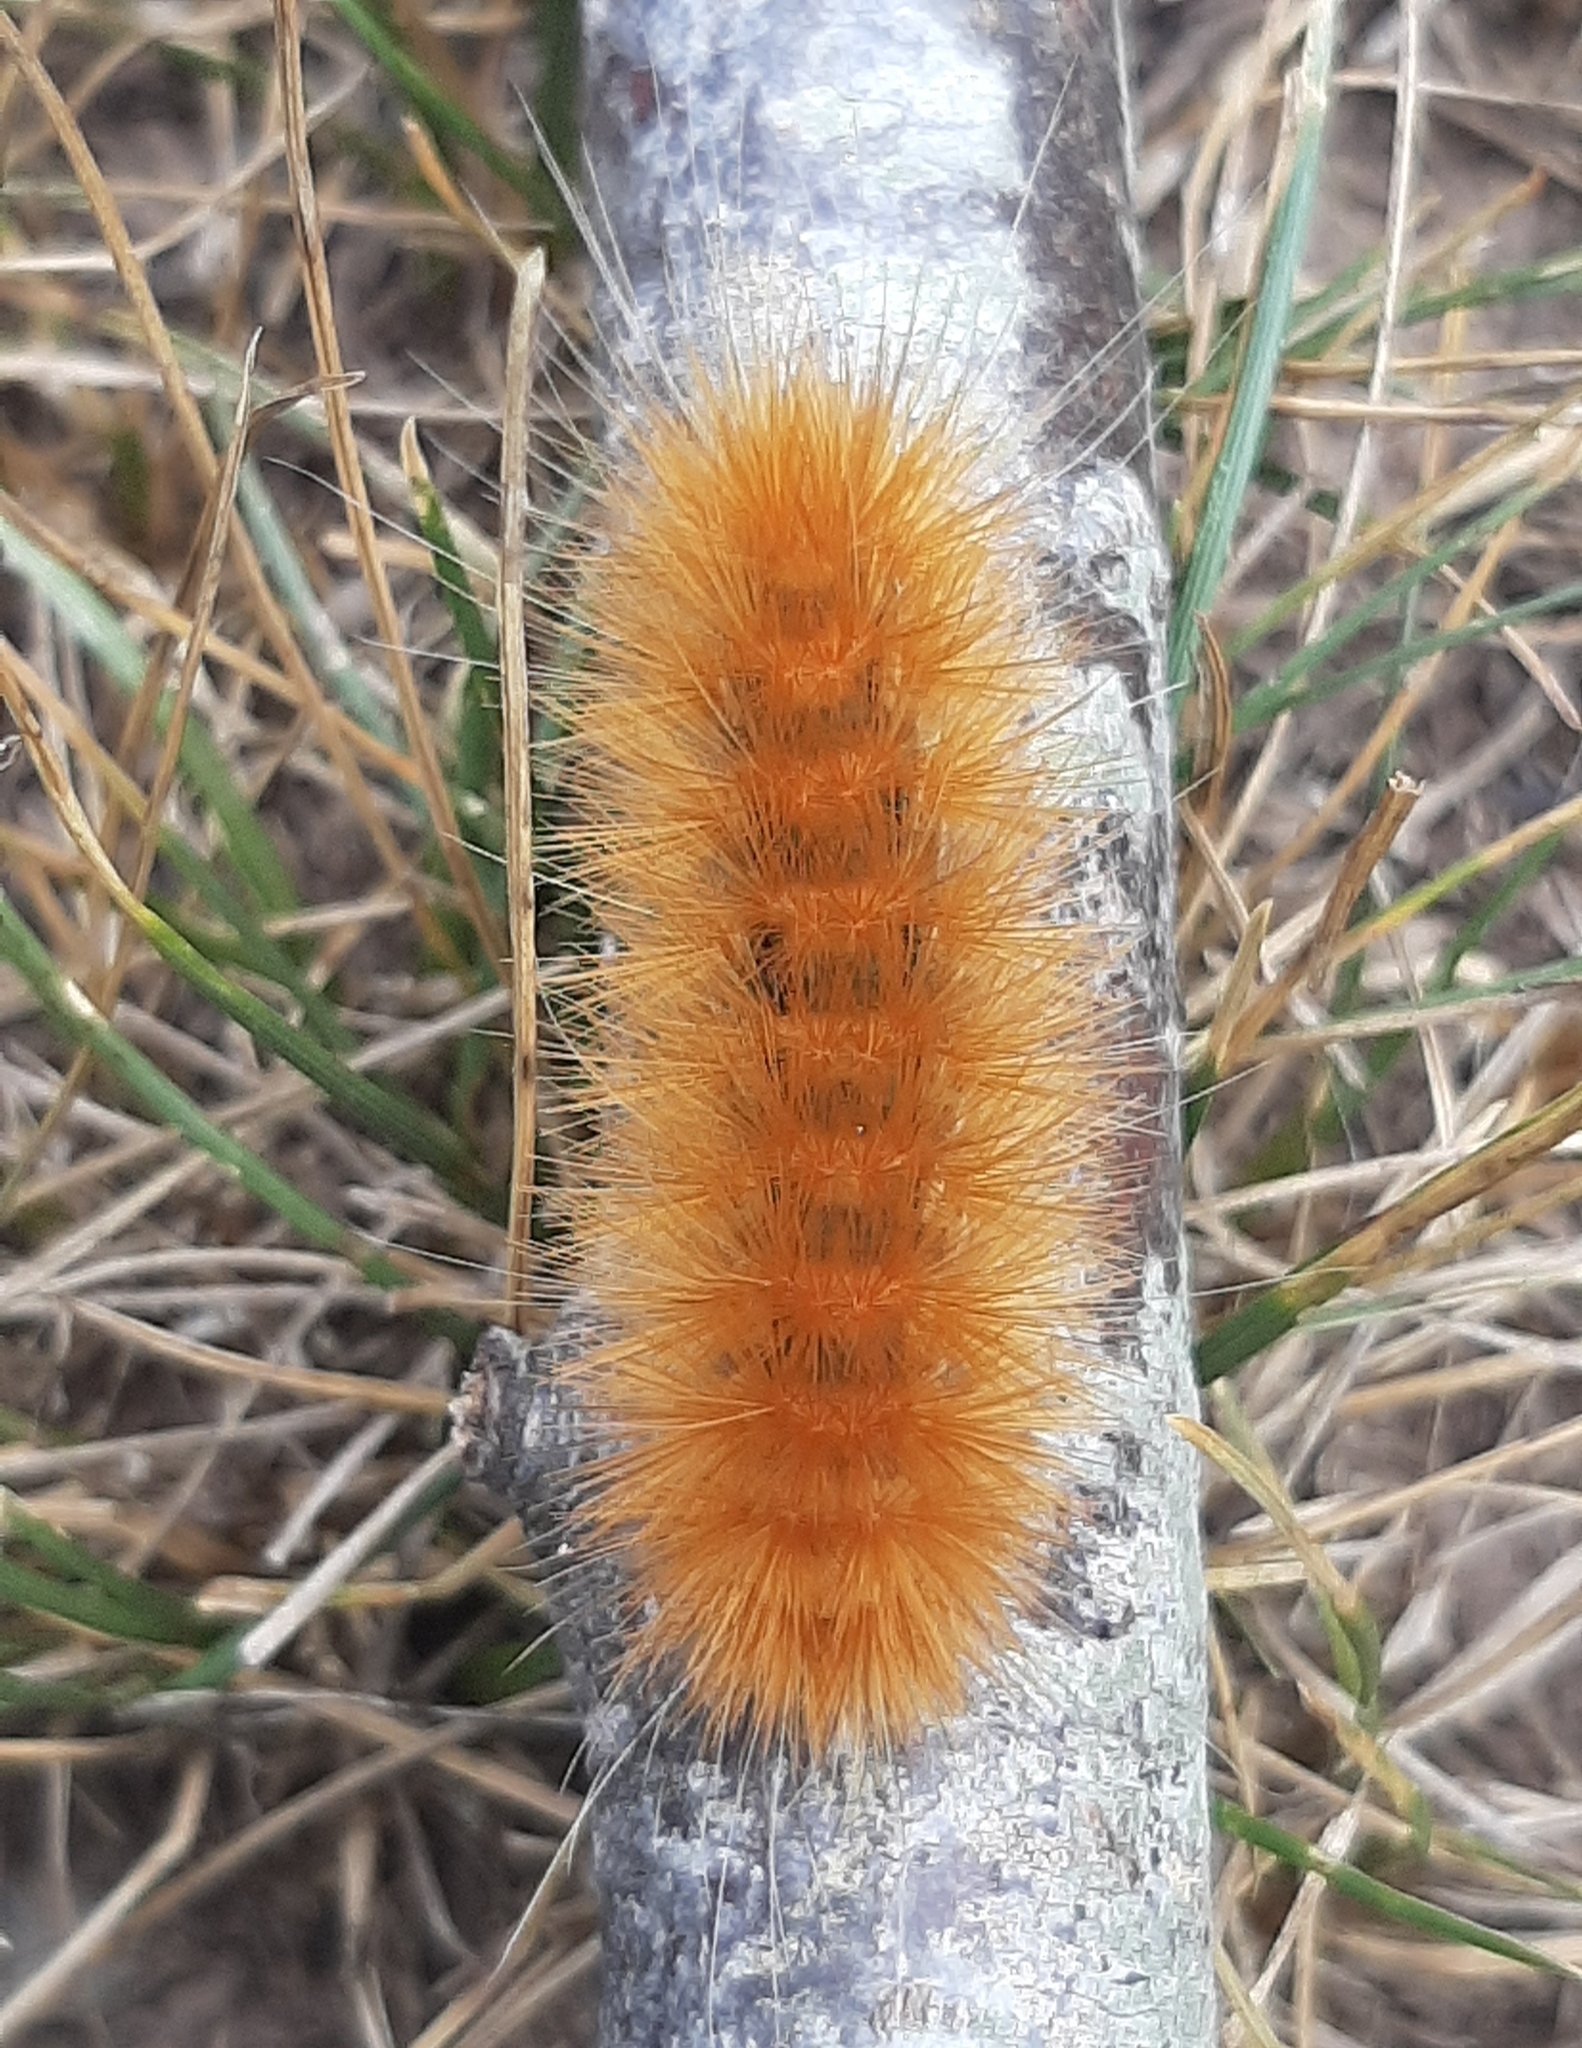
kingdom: Animalia
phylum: Arthropoda
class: Insecta
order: Lepidoptera
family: Erebidae
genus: Spilosoma
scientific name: Spilosoma virginica
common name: Virginia tiger moth
